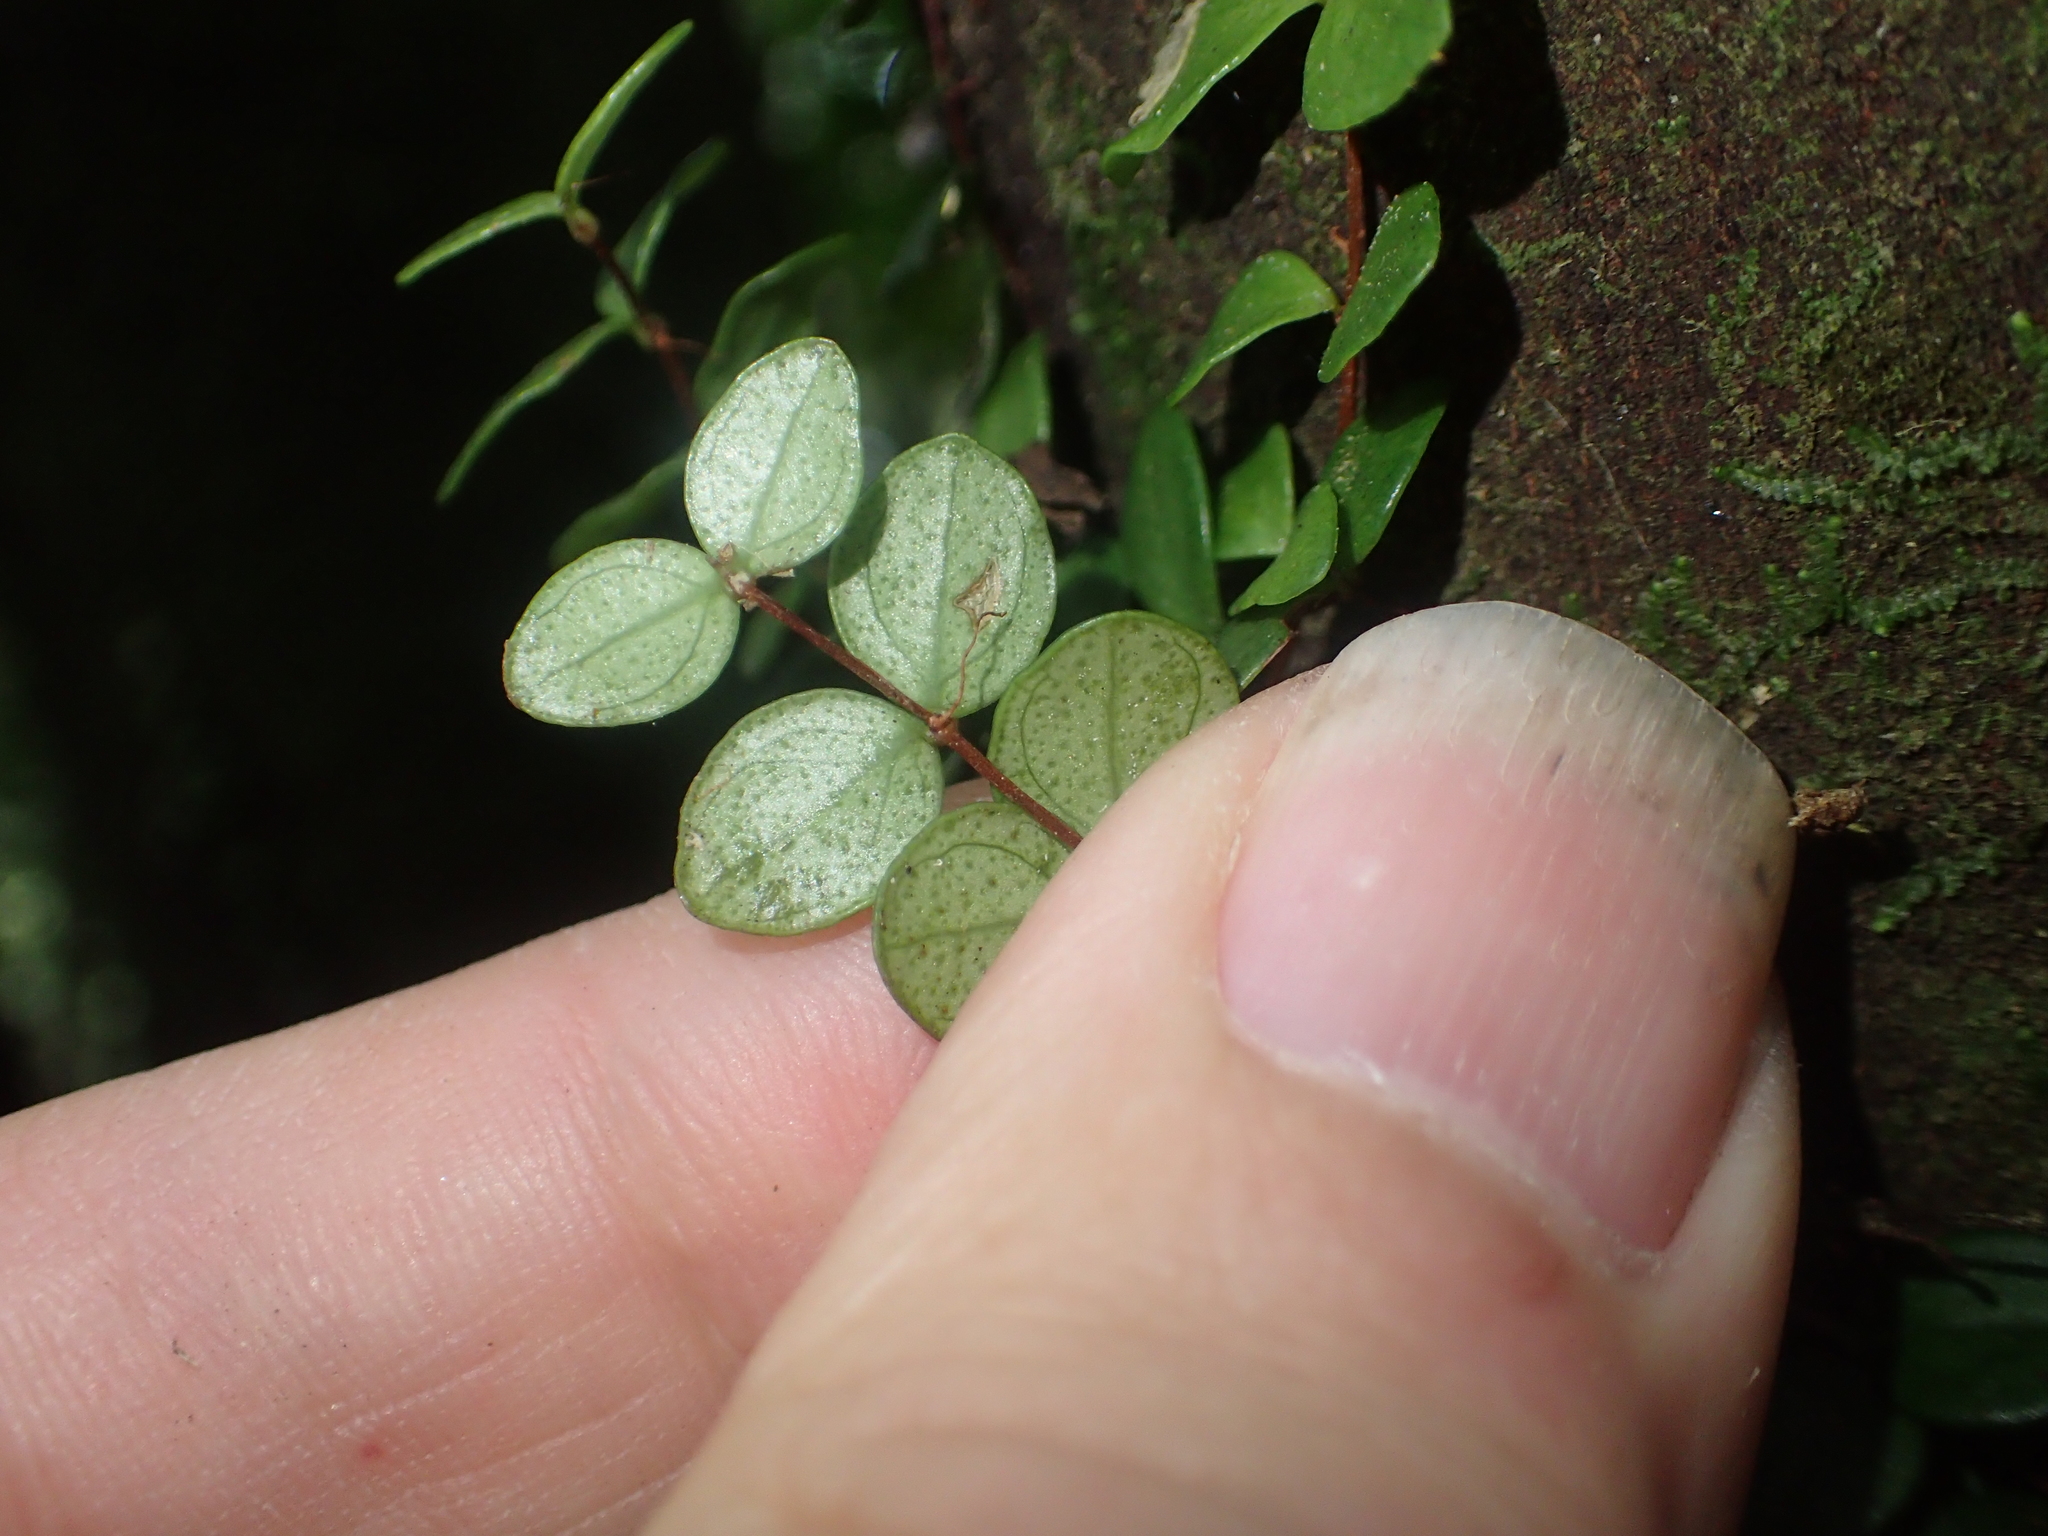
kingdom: Plantae
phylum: Tracheophyta
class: Magnoliopsida
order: Myrtales
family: Myrtaceae
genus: Metrosideros
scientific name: Metrosideros diffusa
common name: Small ratavine
